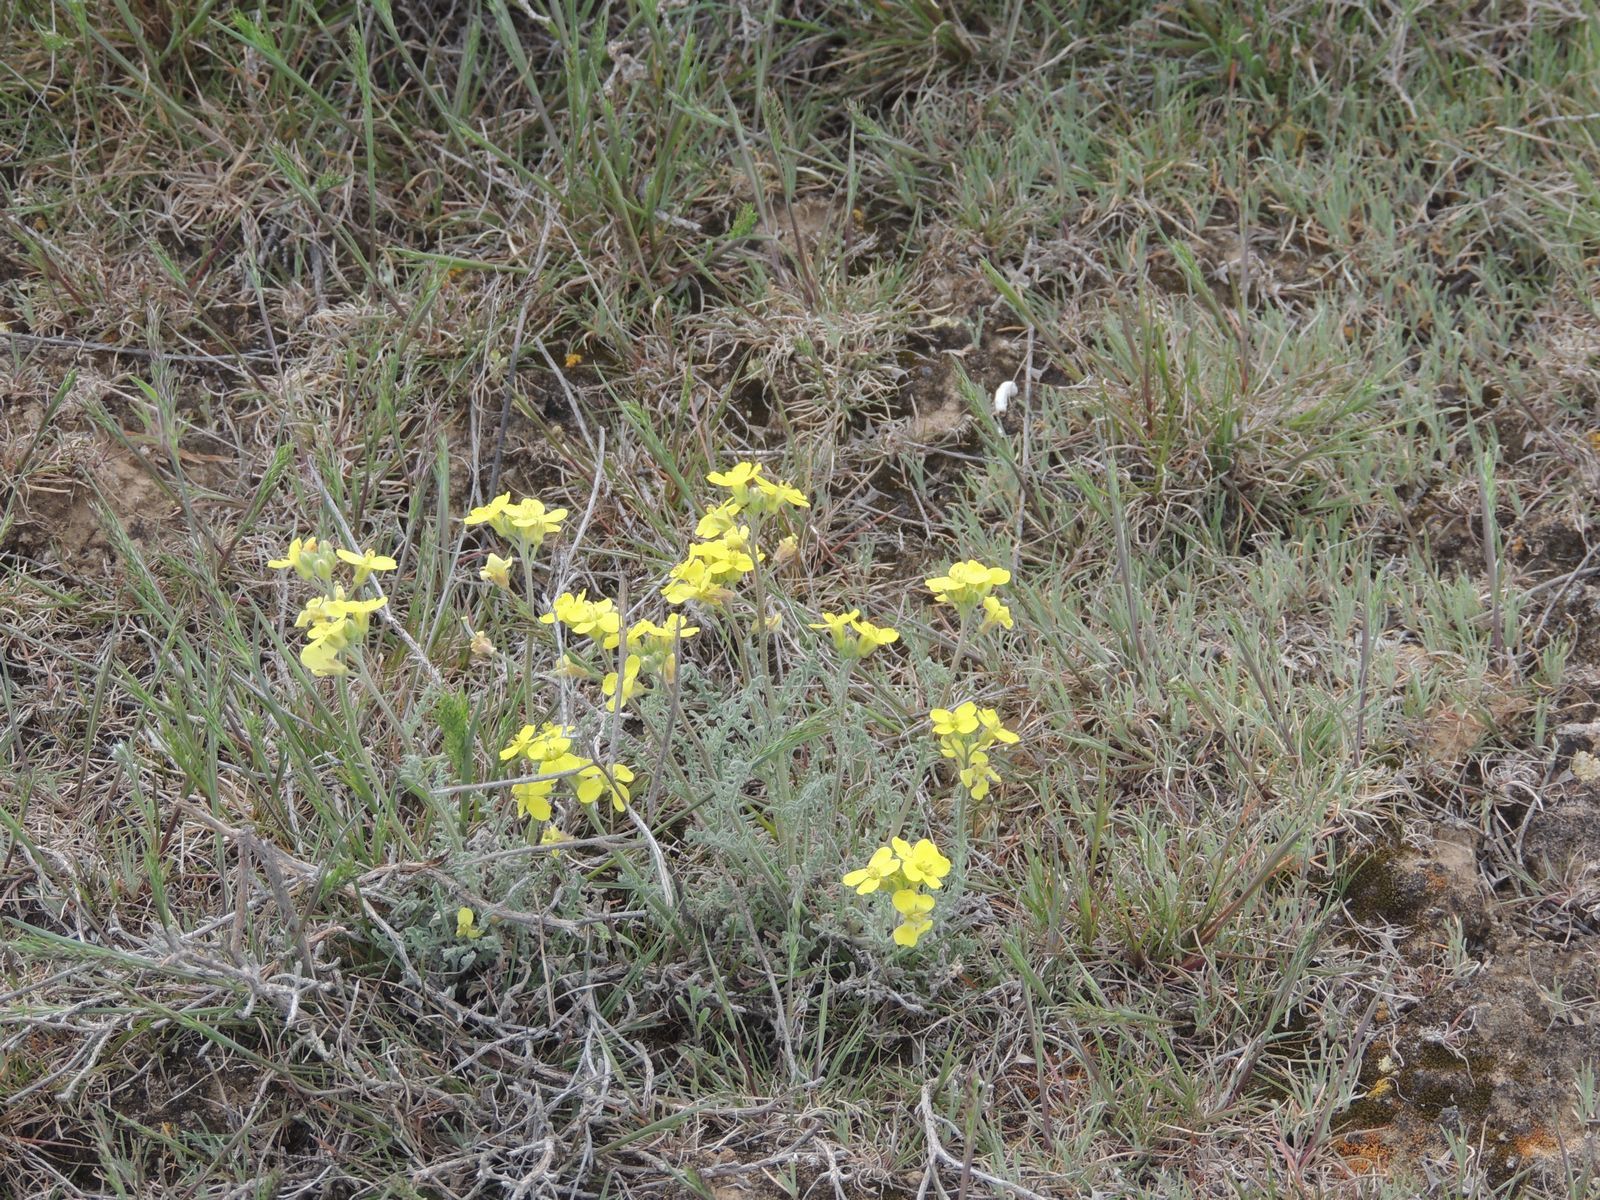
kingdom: Plantae
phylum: Tracheophyta
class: Magnoliopsida
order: Brassicales
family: Brassicaceae
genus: Sterigmostemum
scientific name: Sterigmostemum caspicum
